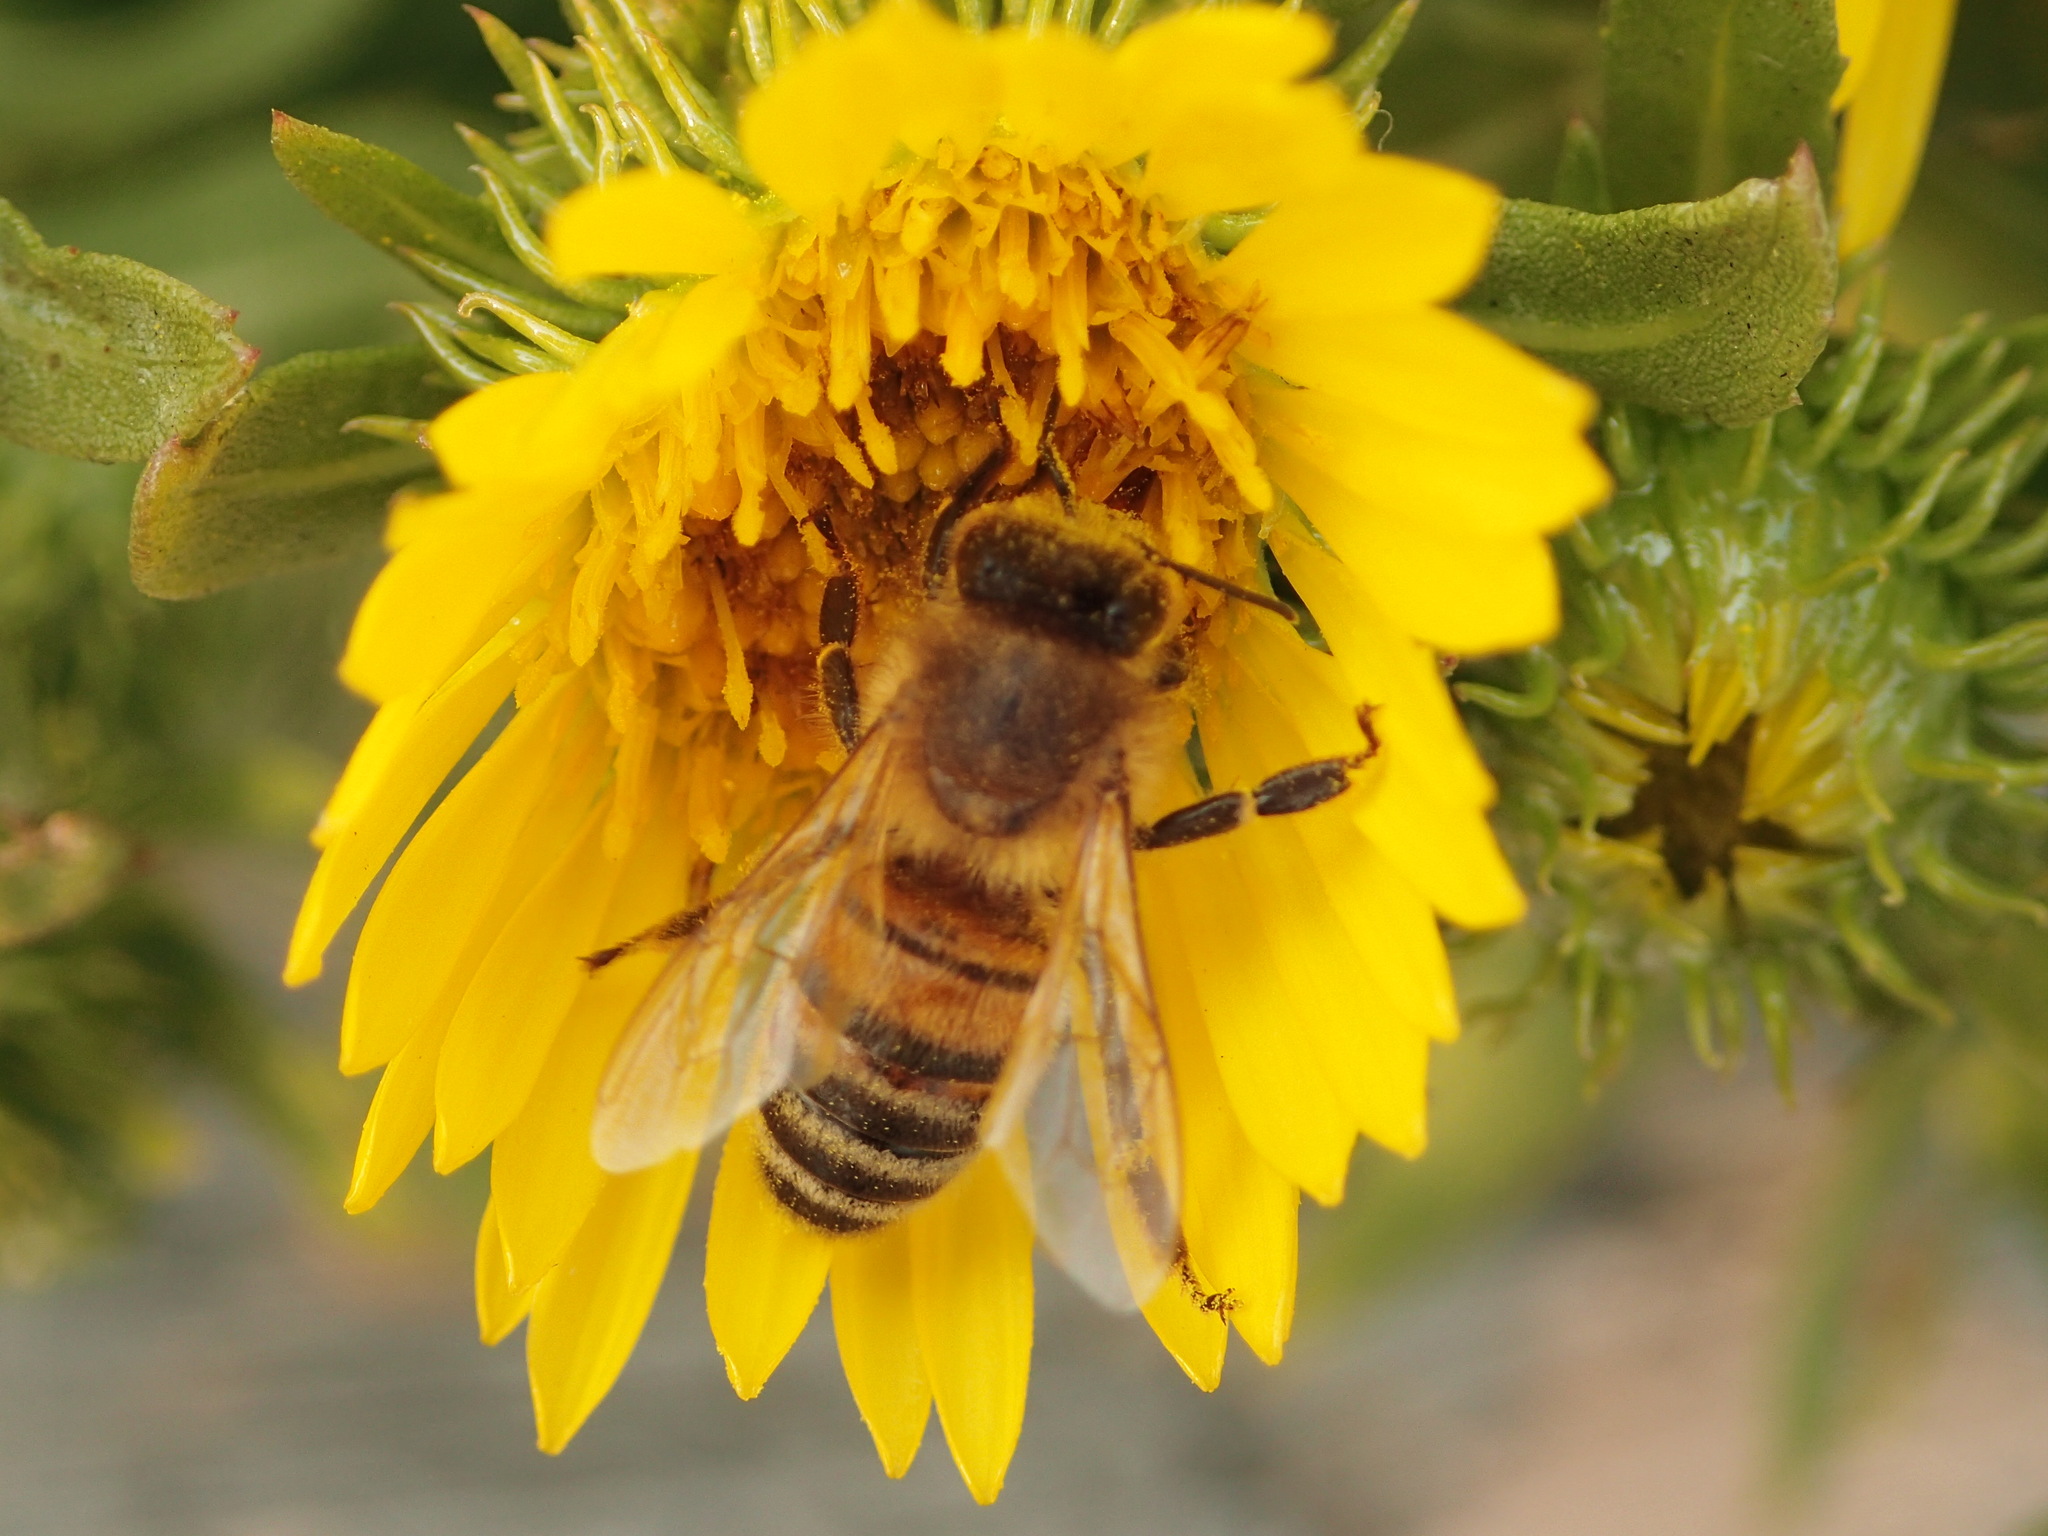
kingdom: Animalia
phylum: Arthropoda
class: Insecta
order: Hymenoptera
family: Apidae
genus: Apis
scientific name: Apis mellifera
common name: Honey bee
